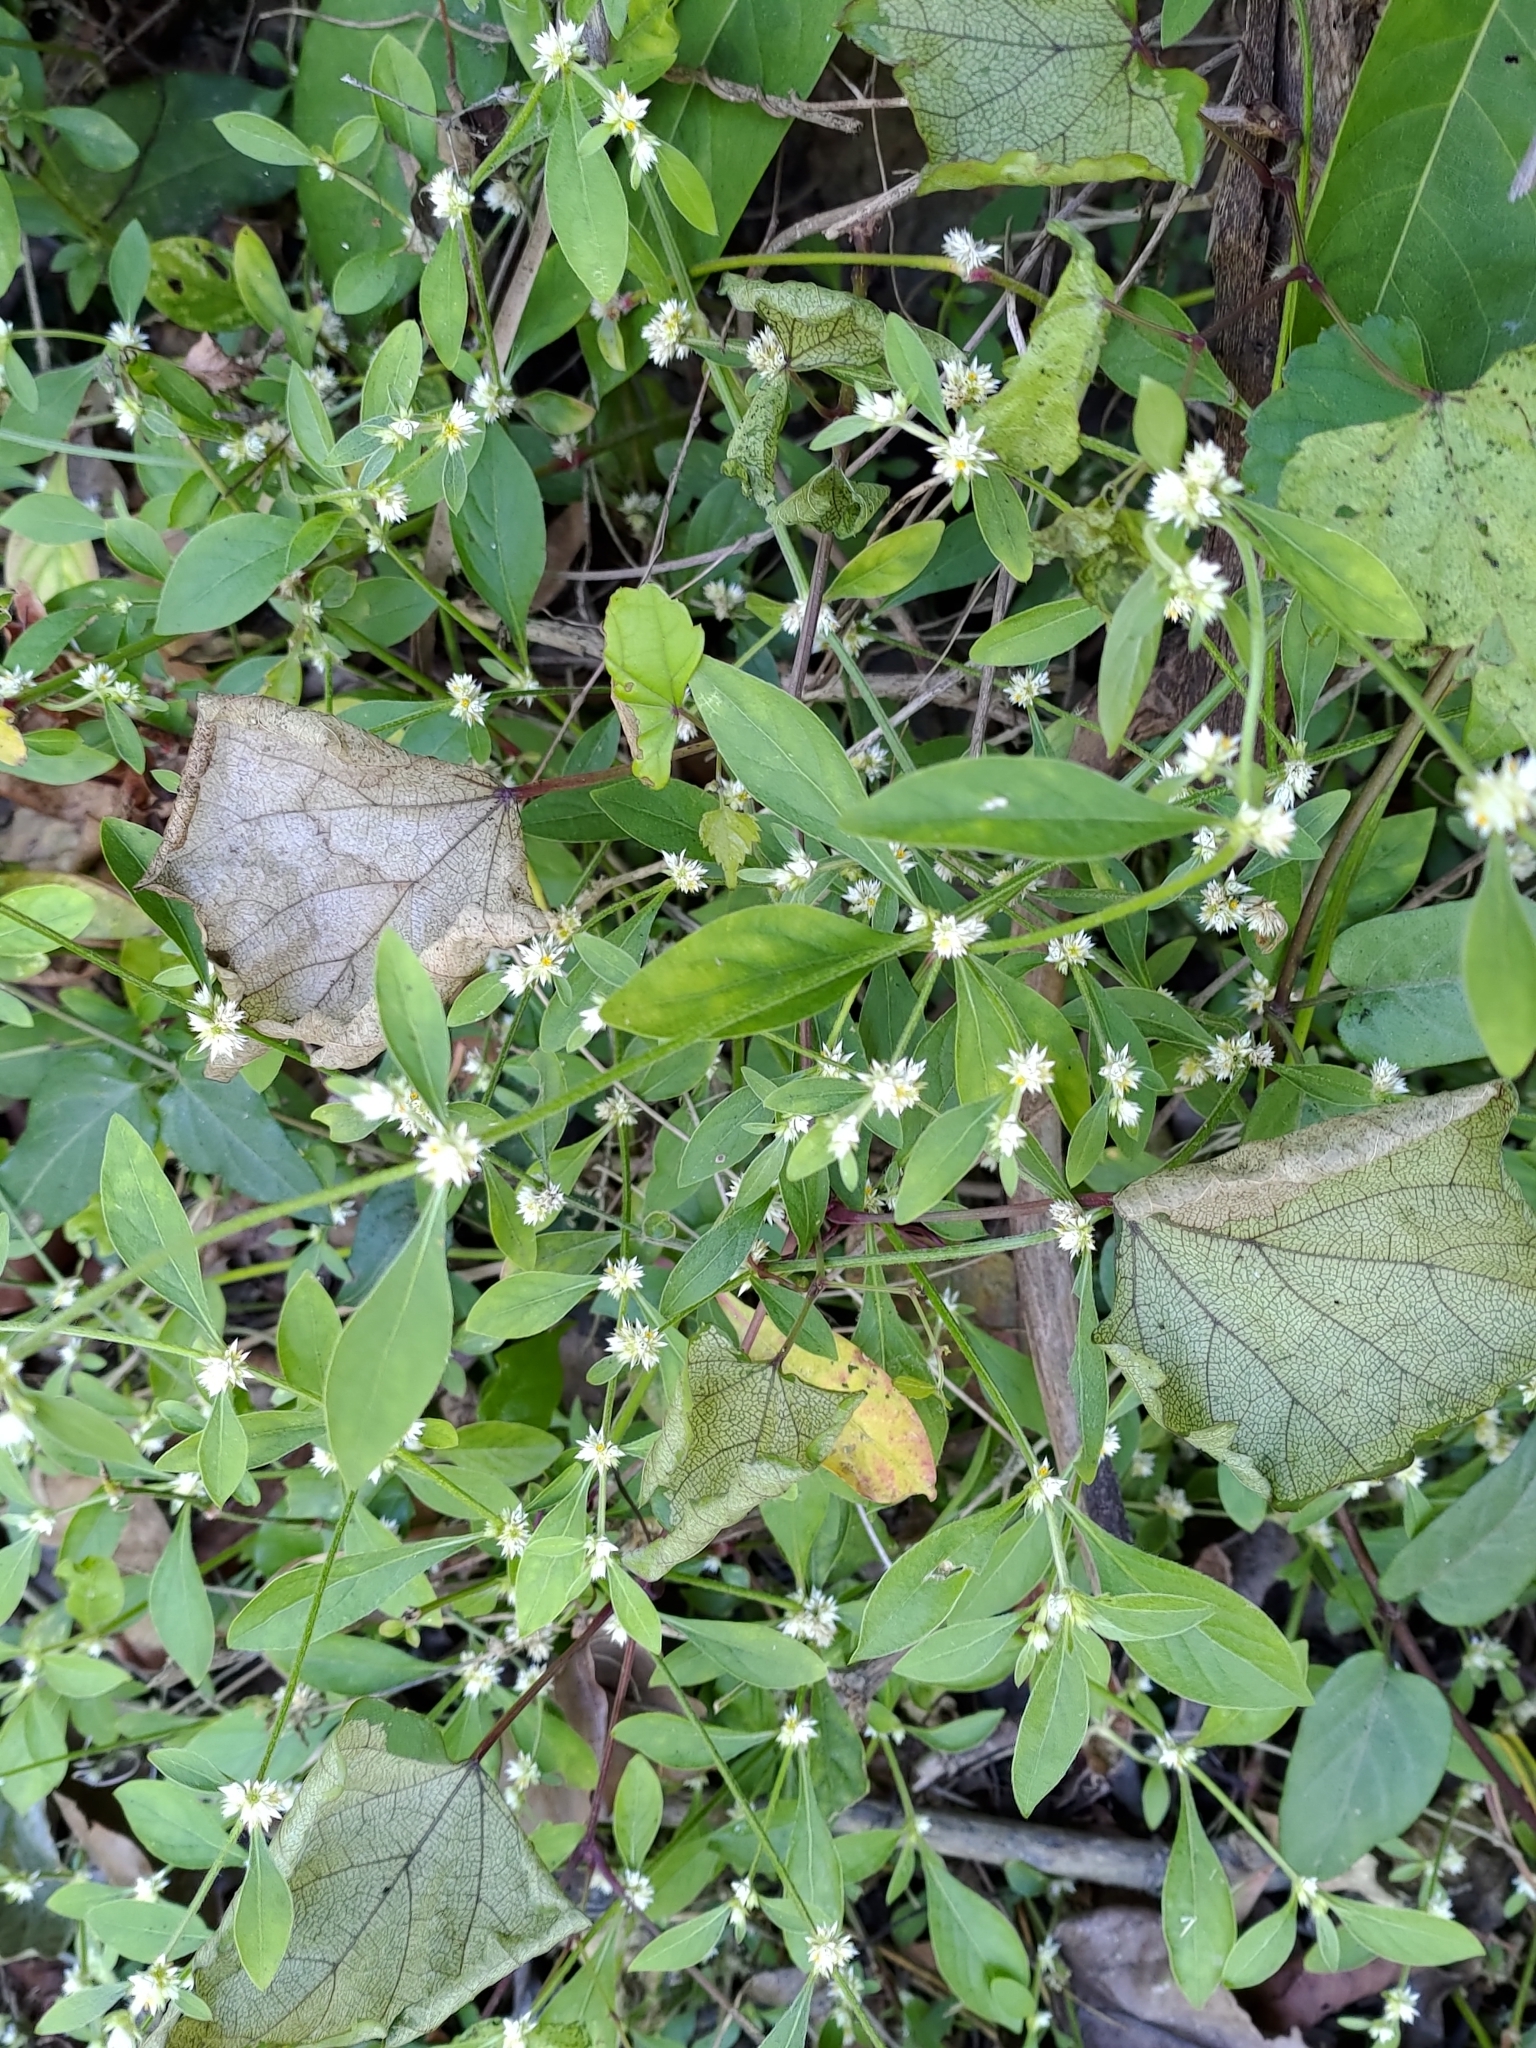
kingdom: Plantae
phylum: Tracheophyta
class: Magnoliopsida
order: Caryophyllales
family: Amaranthaceae
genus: Alternanthera
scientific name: Alternanthera ficoidea
